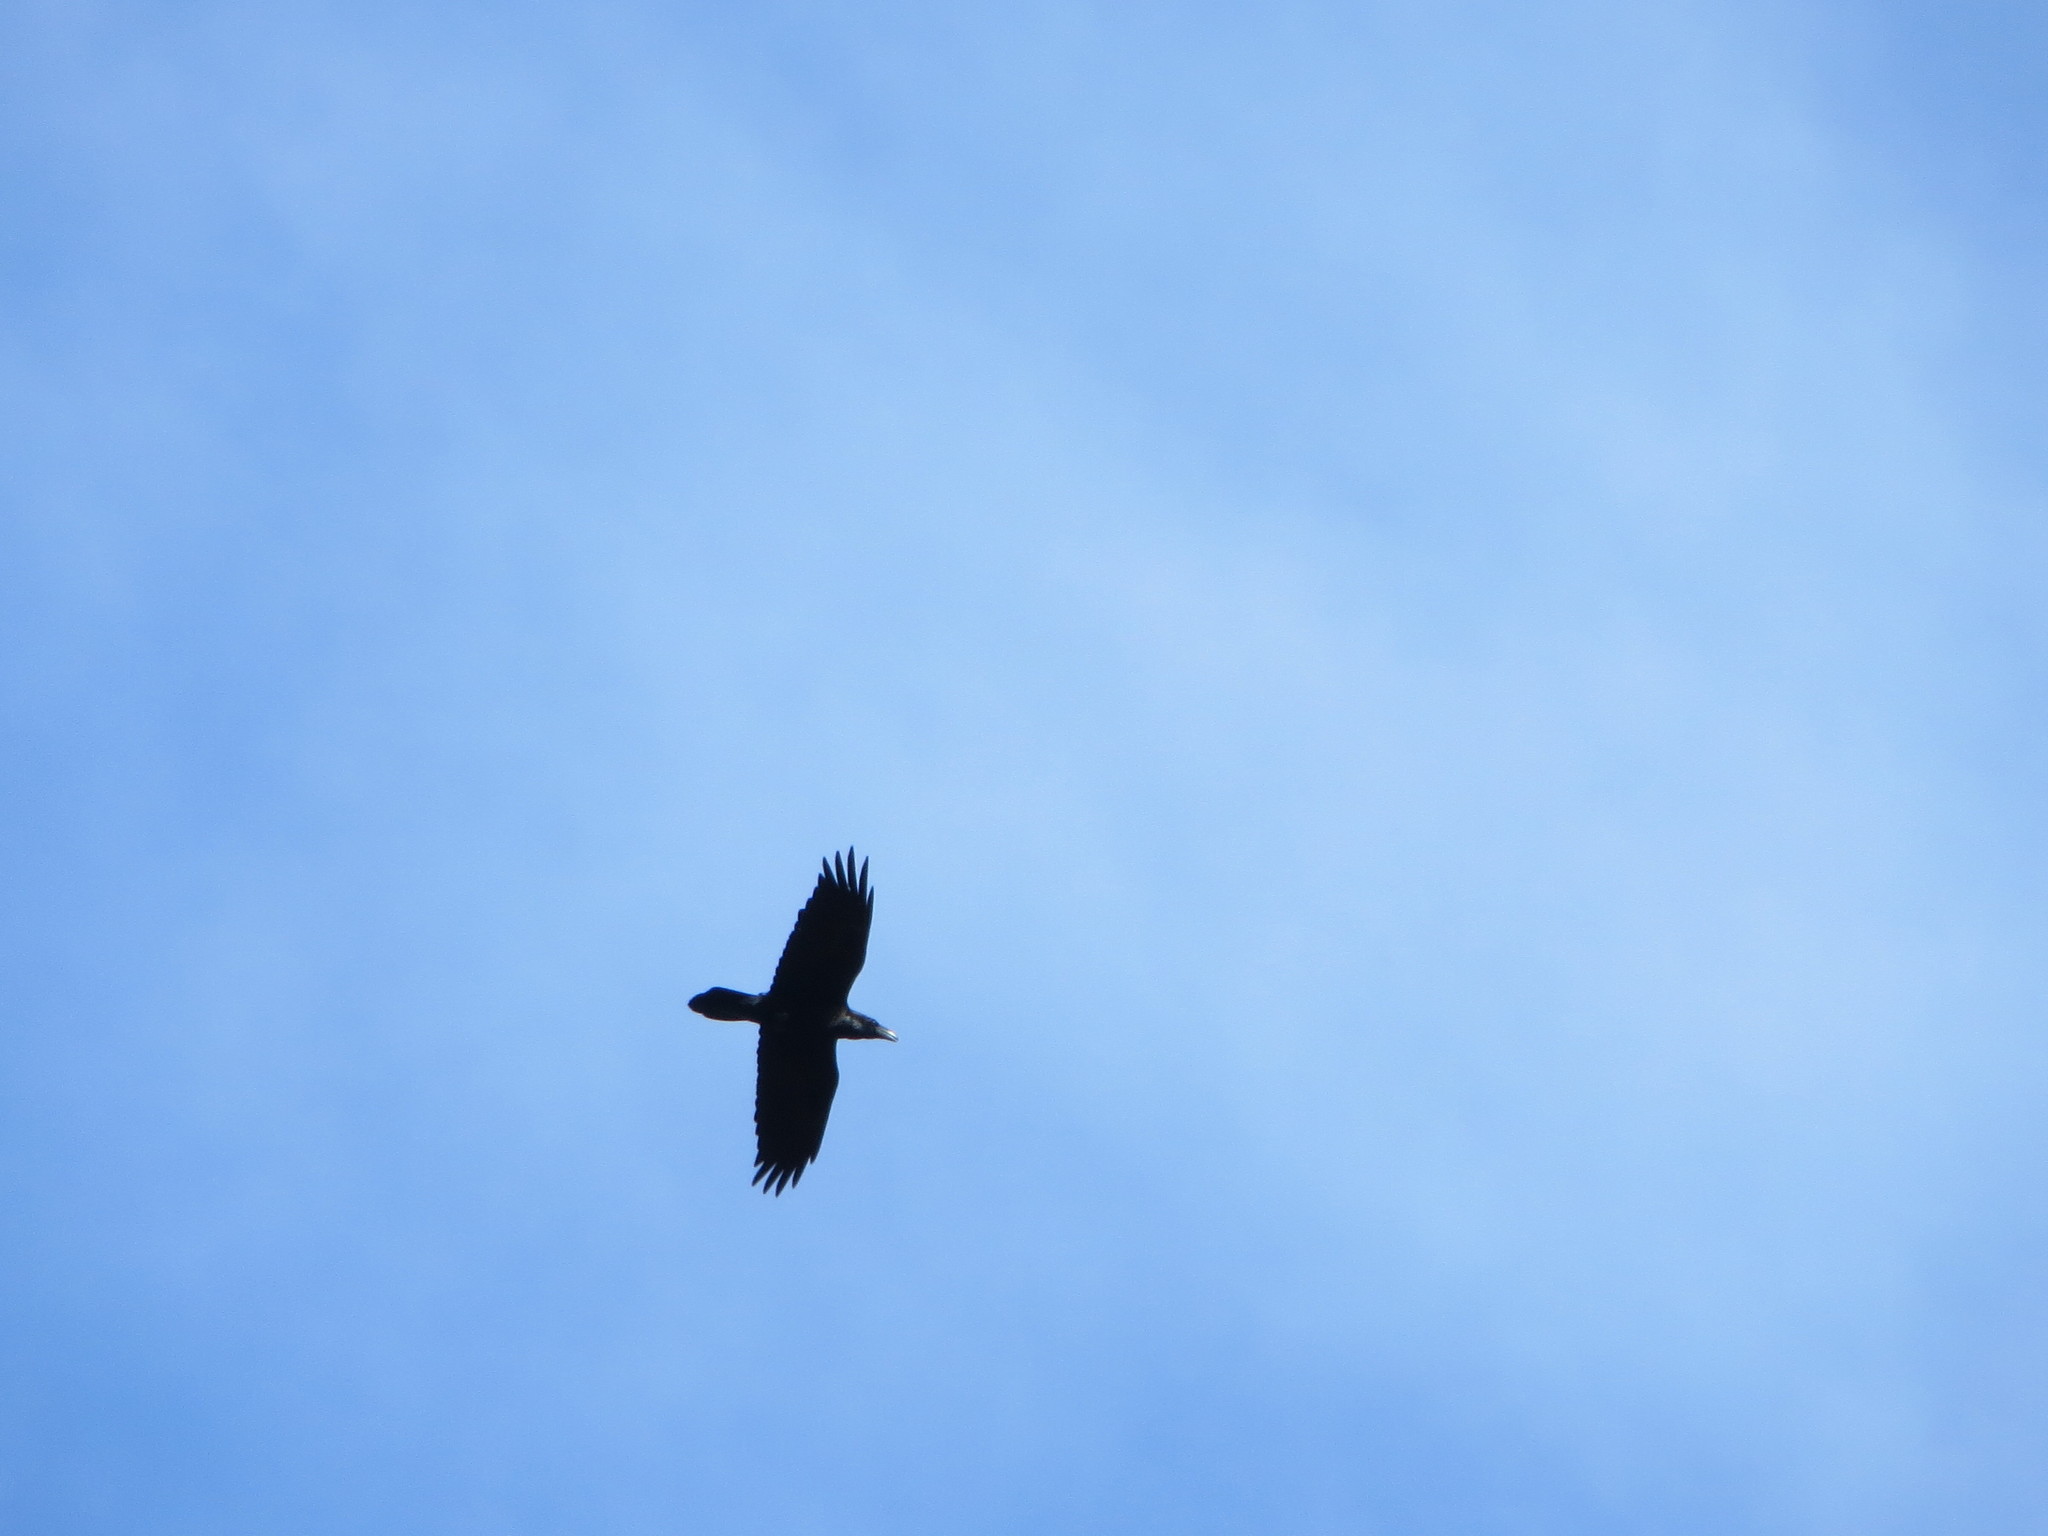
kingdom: Animalia
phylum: Chordata
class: Aves
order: Passeriformes
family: Corvidae
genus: Corvus
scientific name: Corvus corax
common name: Common raven
